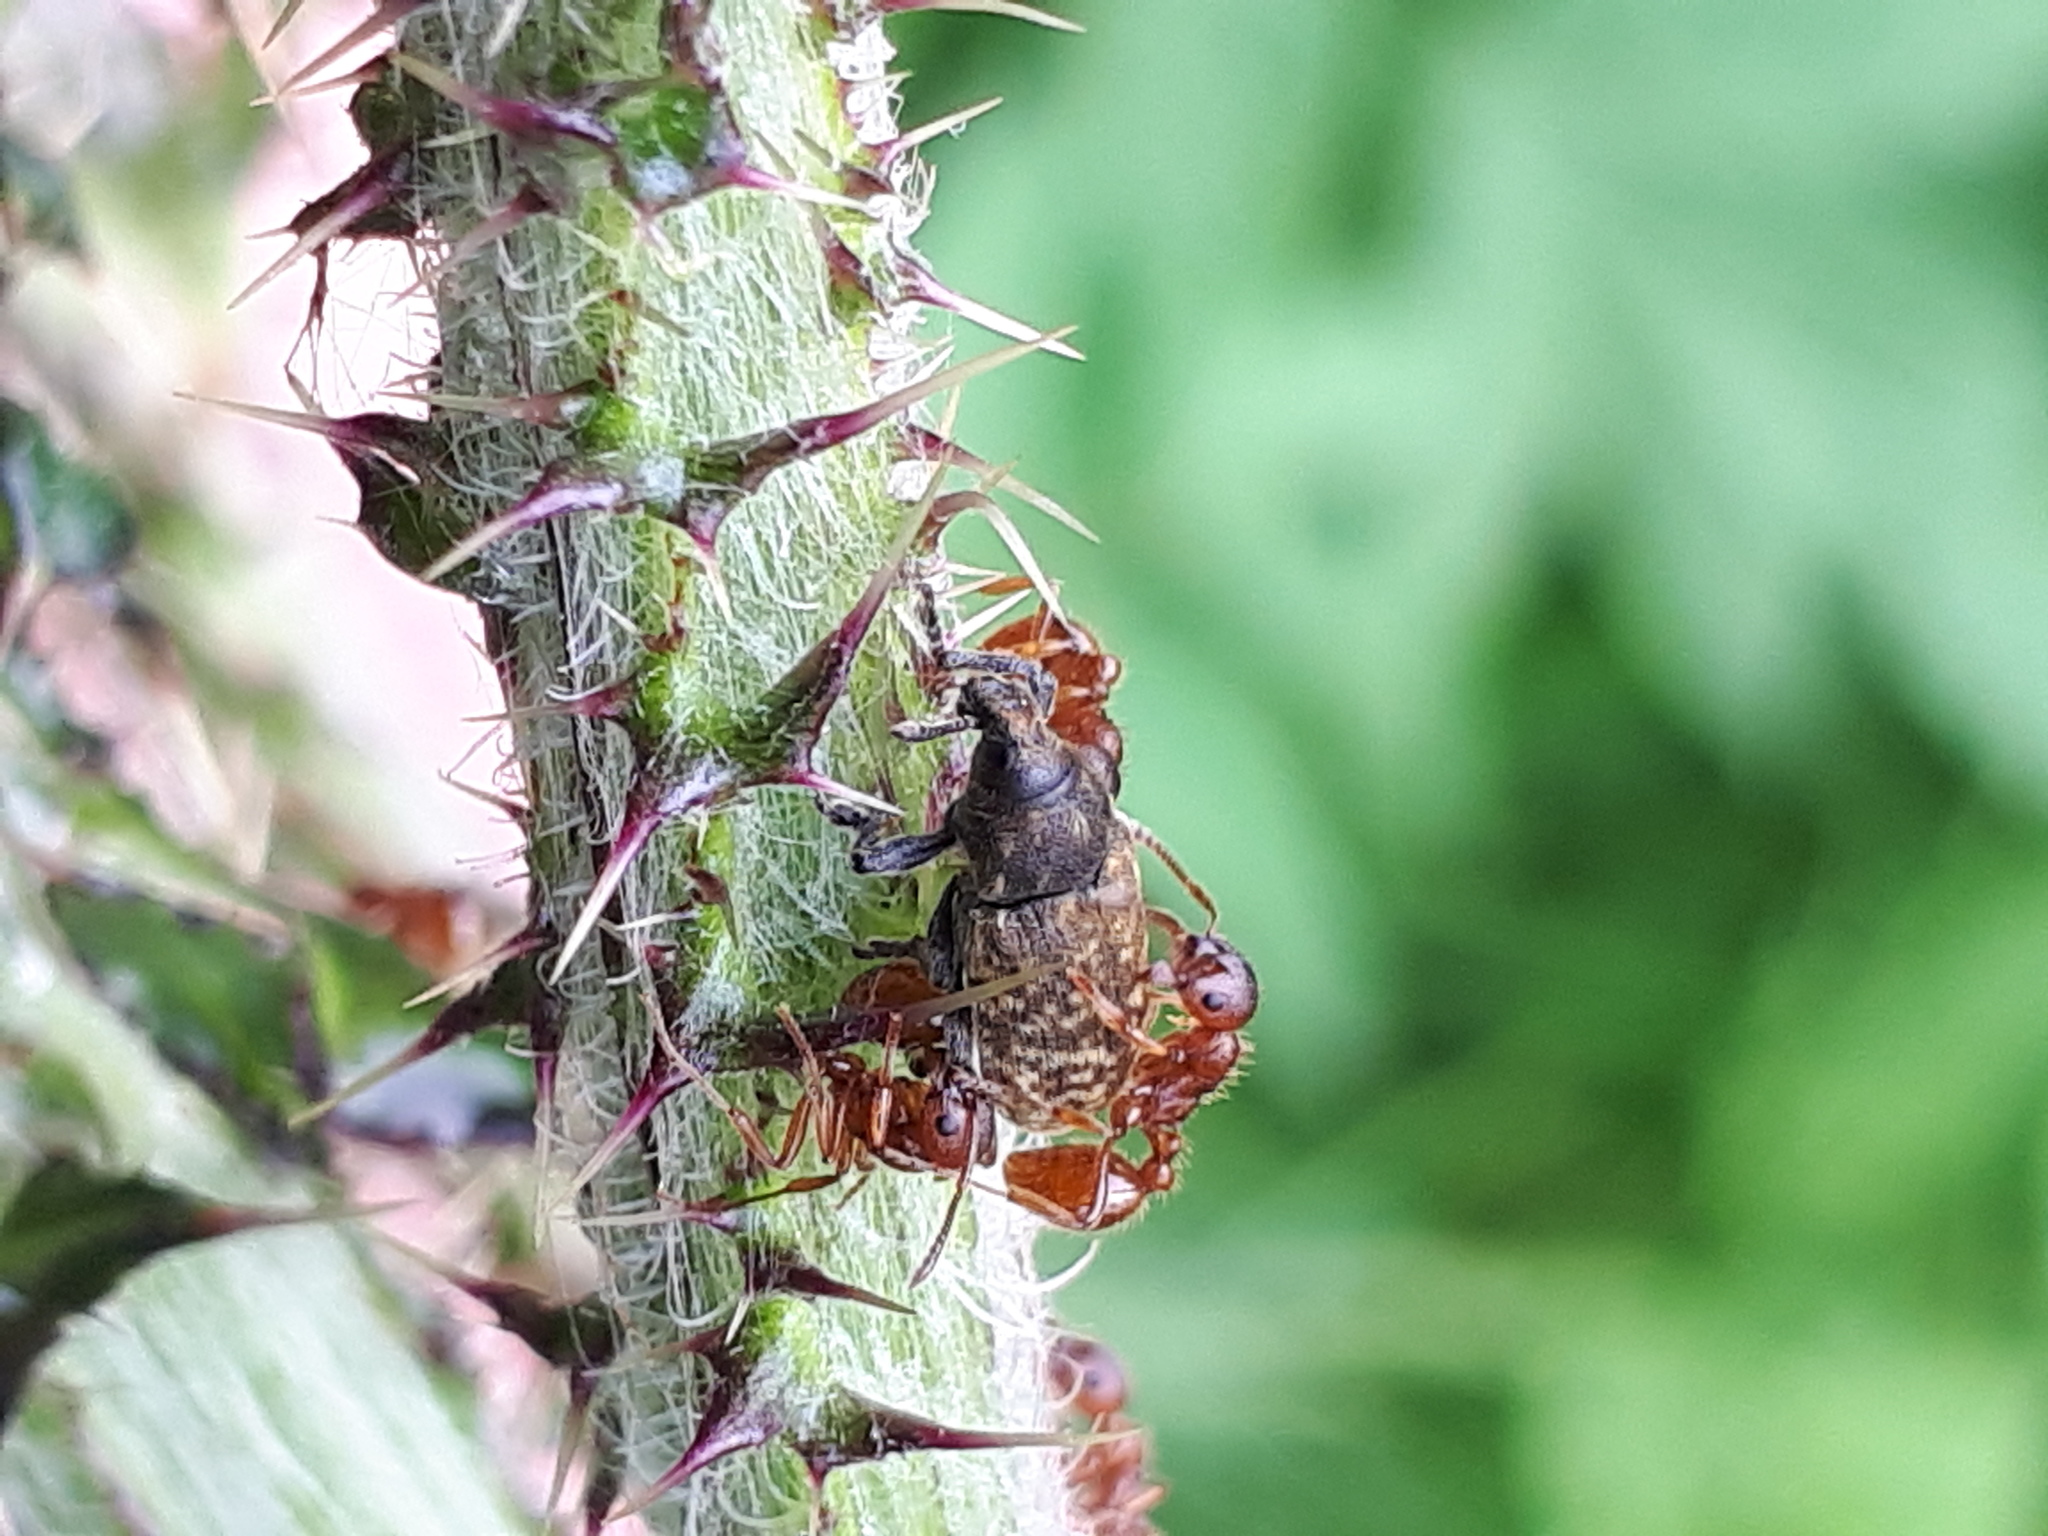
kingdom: Animalia
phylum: Arthropoda
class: Insecta
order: Coleoptera
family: Curculionidae
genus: Rhinocyllus
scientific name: Rhinocyllus conicus
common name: Weevil
